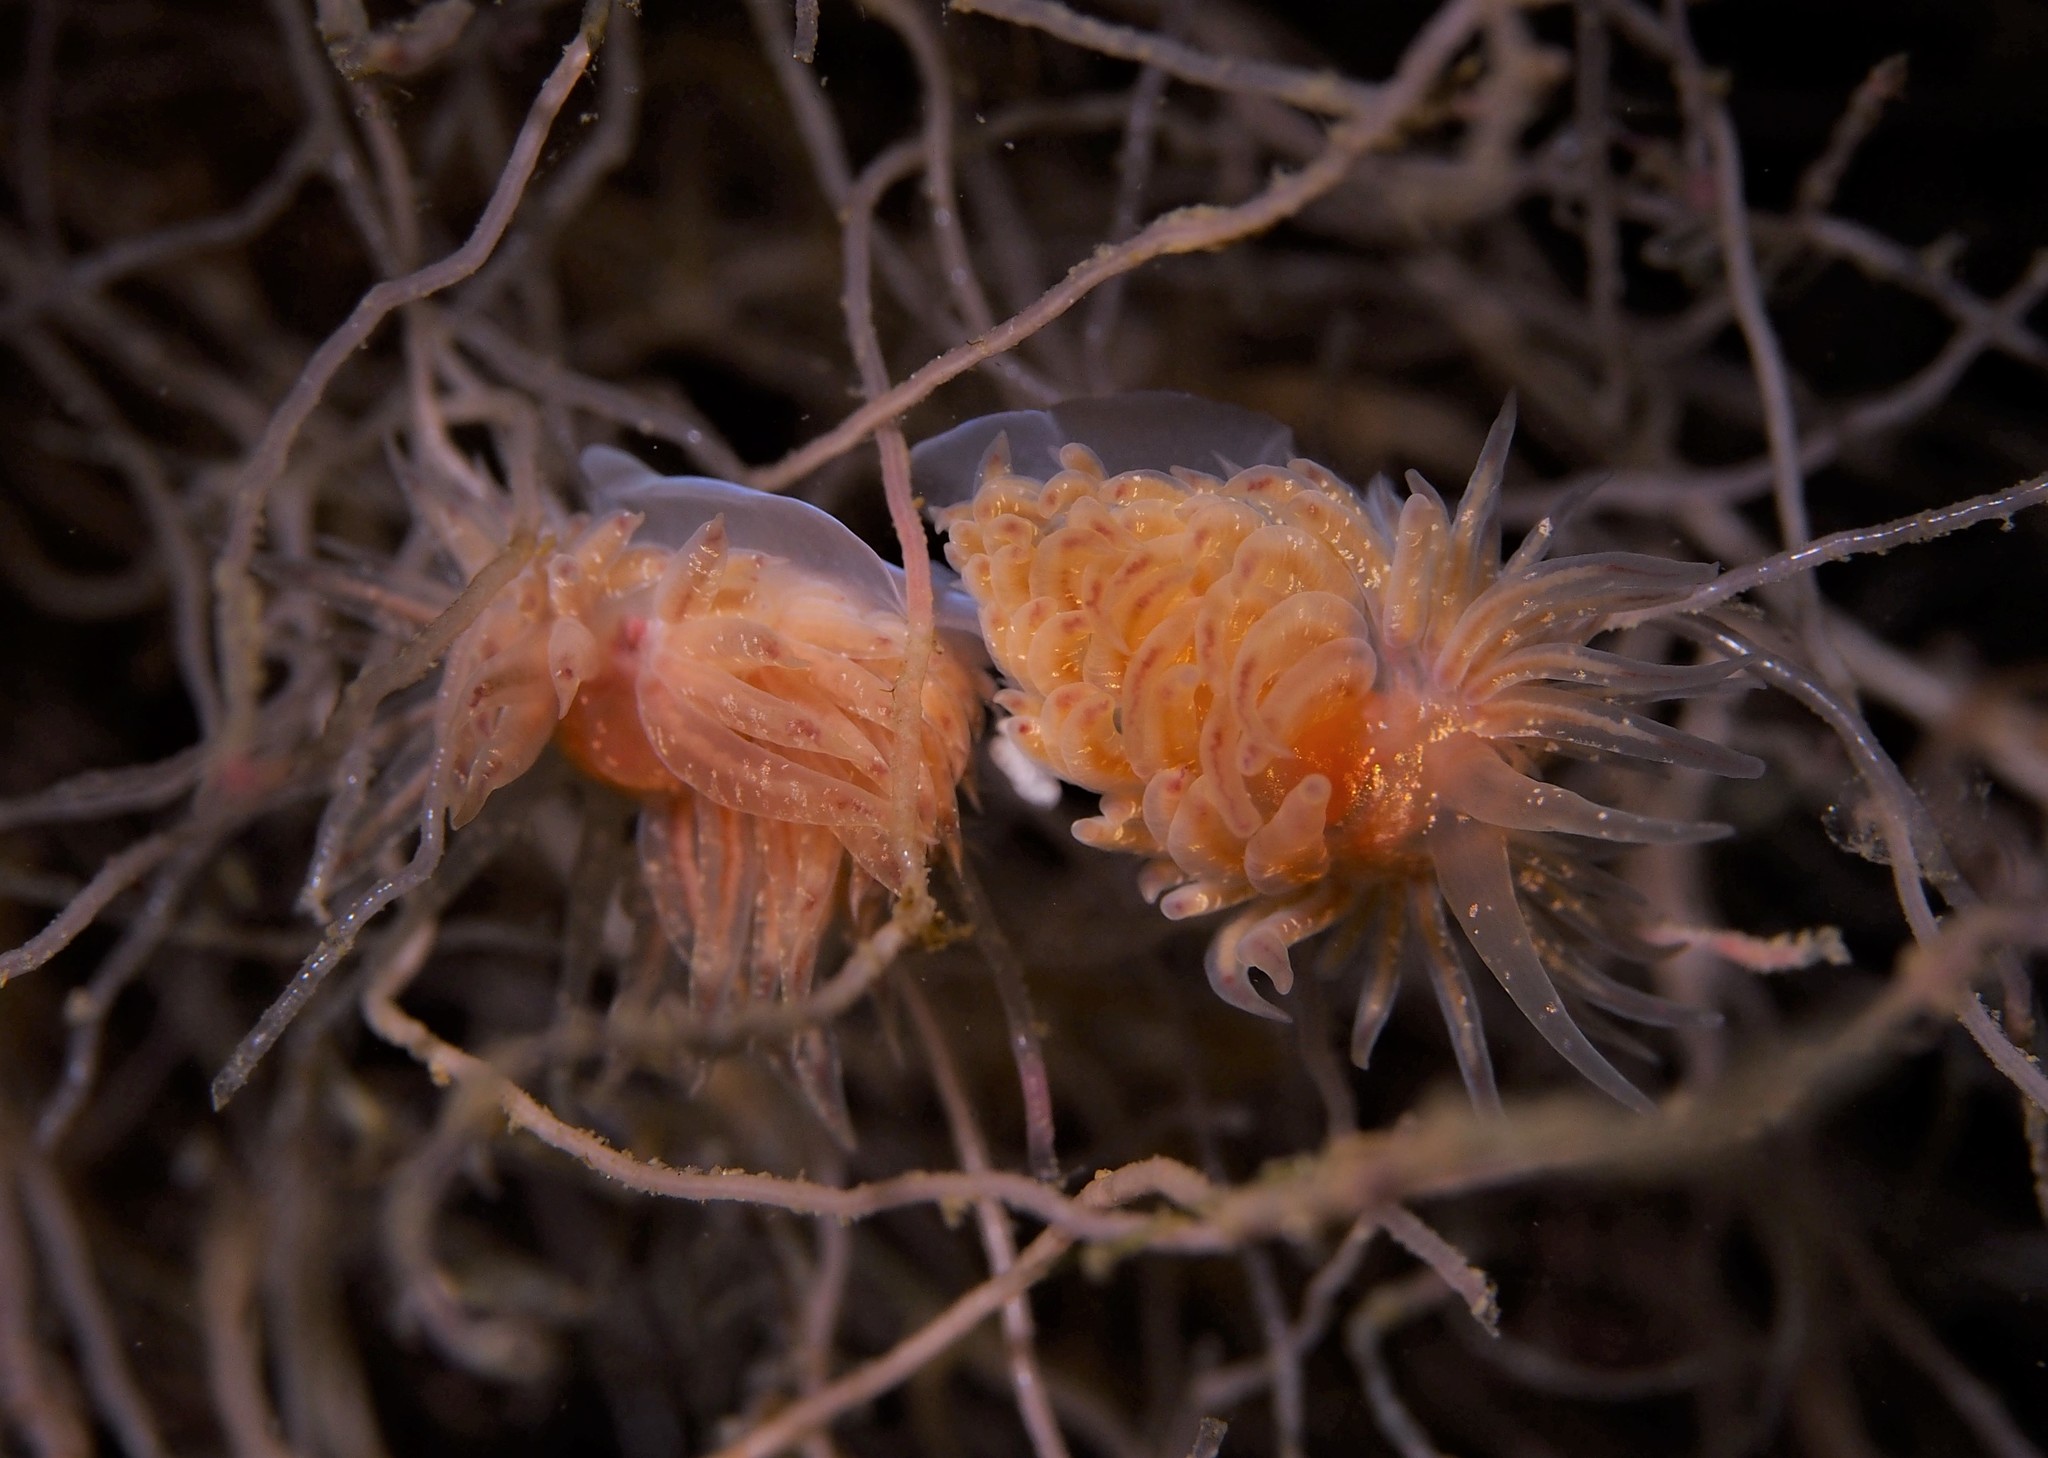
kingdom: Animalia
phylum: Mollusca
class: Gastropoda
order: Nudibranchia
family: Cumanotidae
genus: Cumanotus
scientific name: Cumanotus beaumonti
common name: Polyp aeolis
